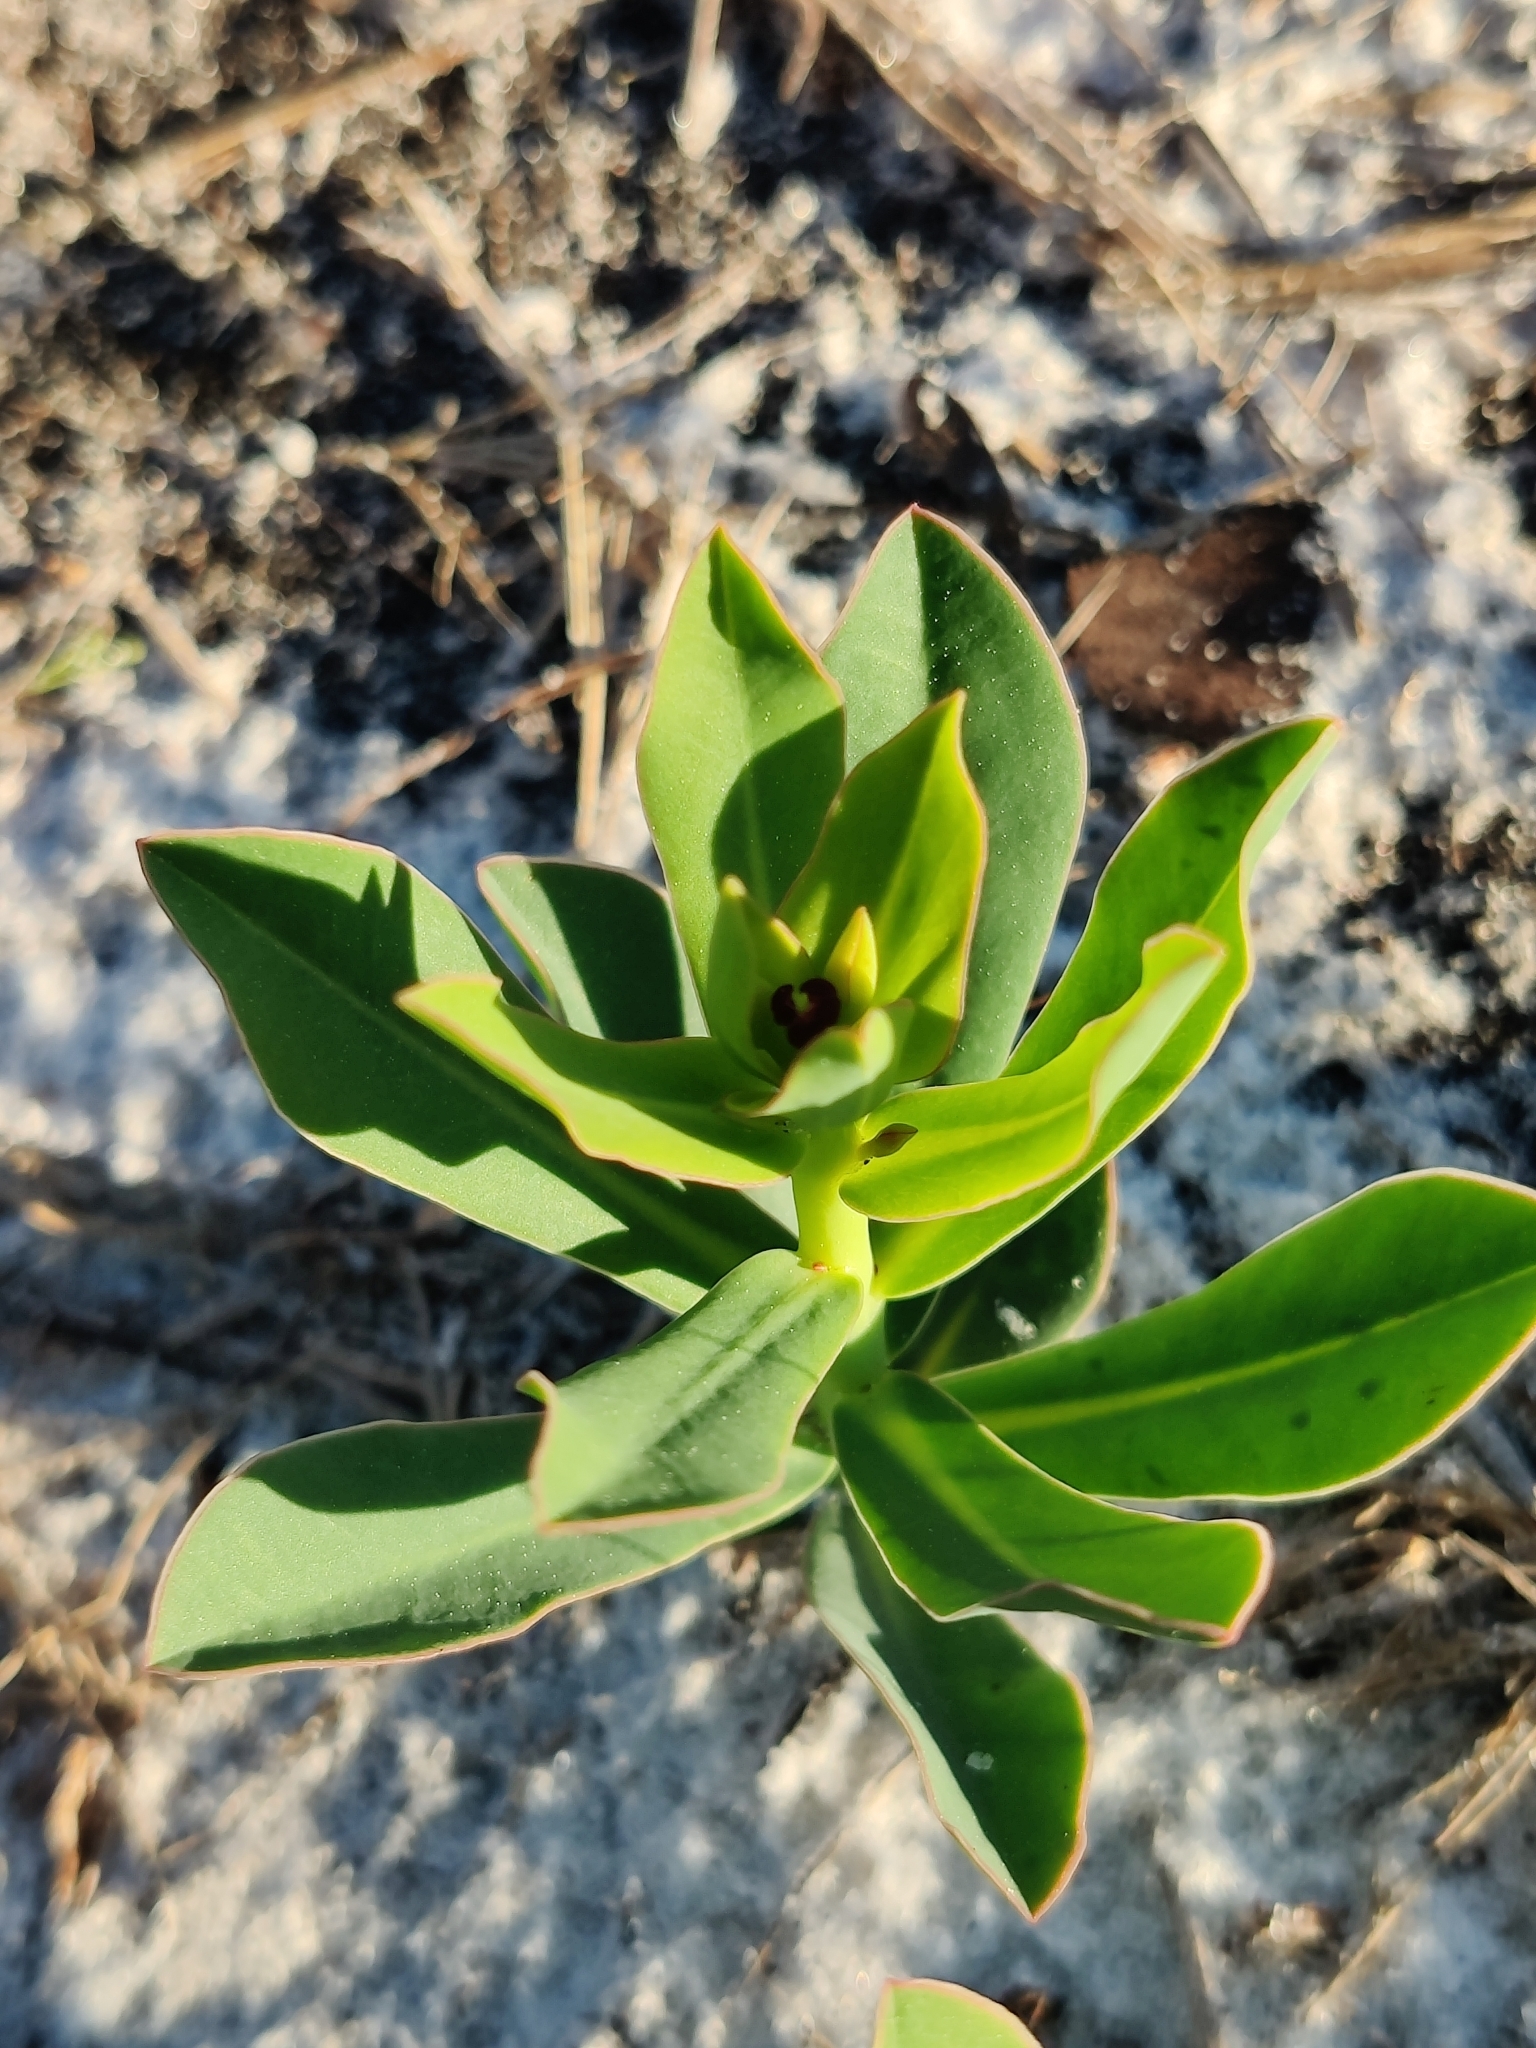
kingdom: Plantae
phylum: Tracheophyta
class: Magnoliopsida
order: Malpighiales
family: Euphorbiaceae
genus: Euphorbia
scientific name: Euphorbia telephioides
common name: Telephus spurge
